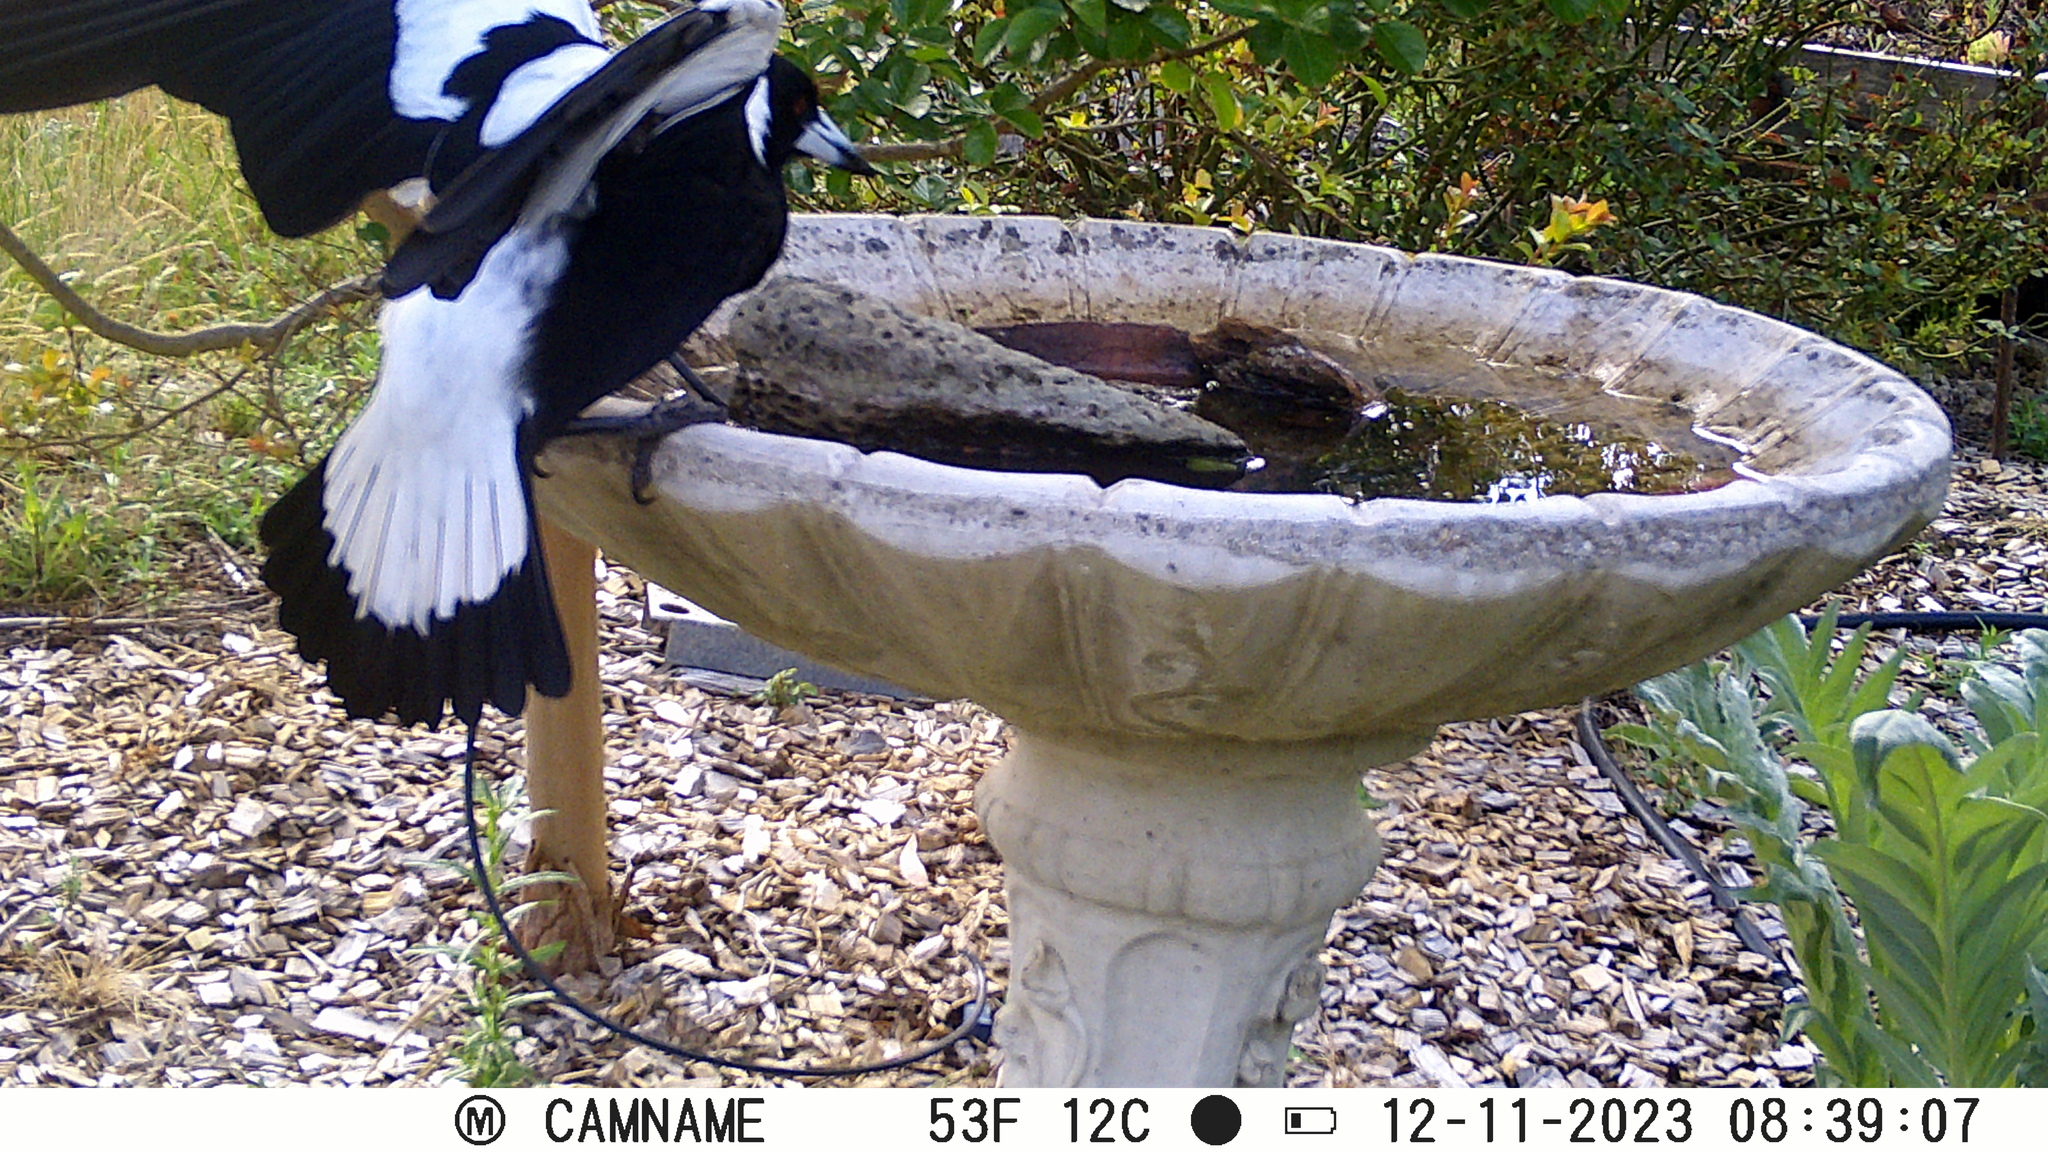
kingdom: Animalia
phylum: Chordata
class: Aves
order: Passeriformes
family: Cracticidae
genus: Gymnorhina
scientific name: Gymnorhina tibicen
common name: Australian magpie
